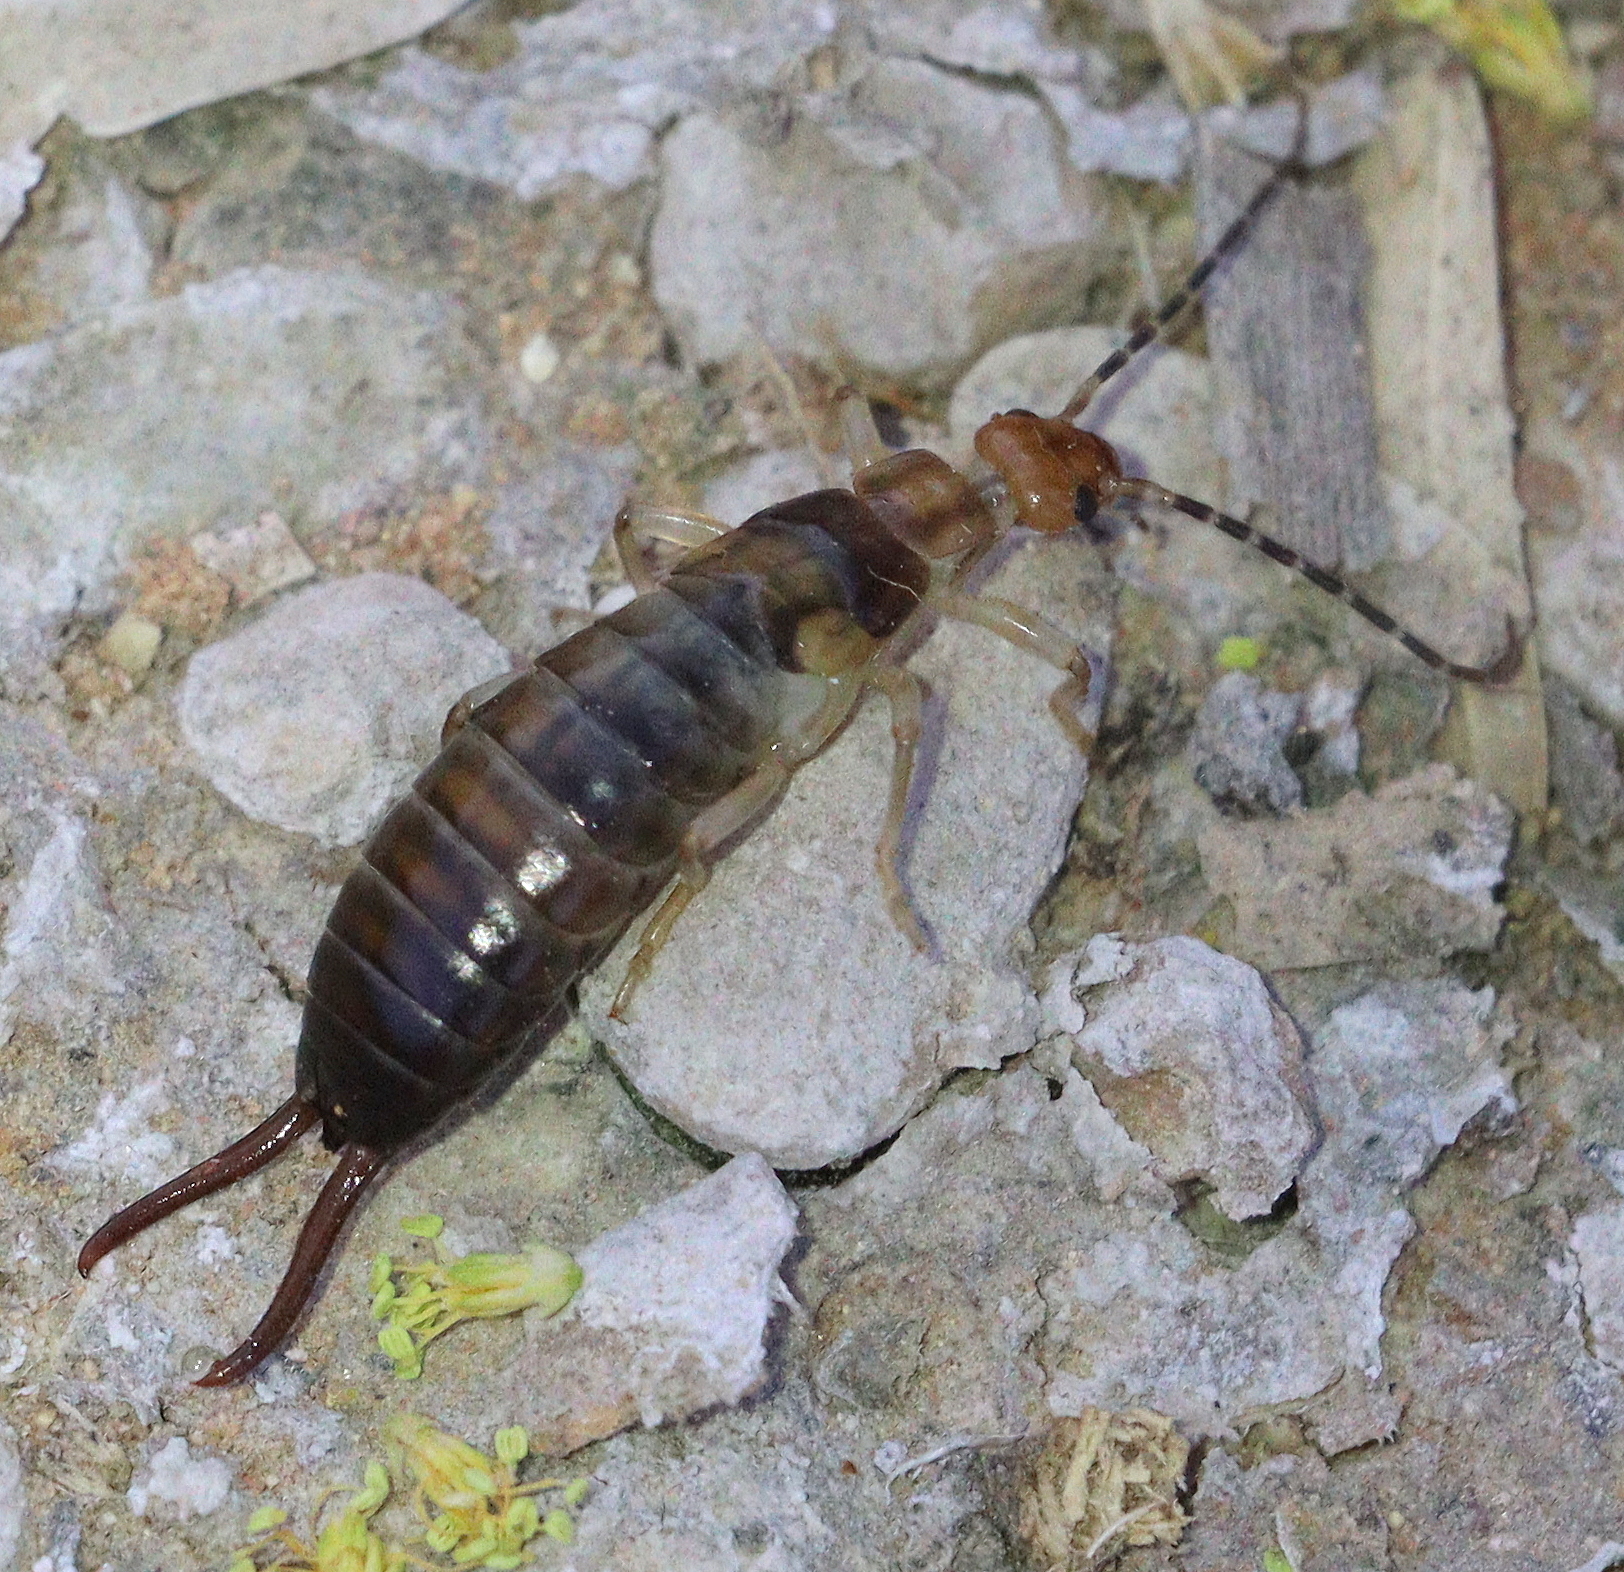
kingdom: Animalia
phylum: Arthropoda
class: Insecta
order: Dermaptera
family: Forficulidae
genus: Forficula
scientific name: Forficula lucasi
